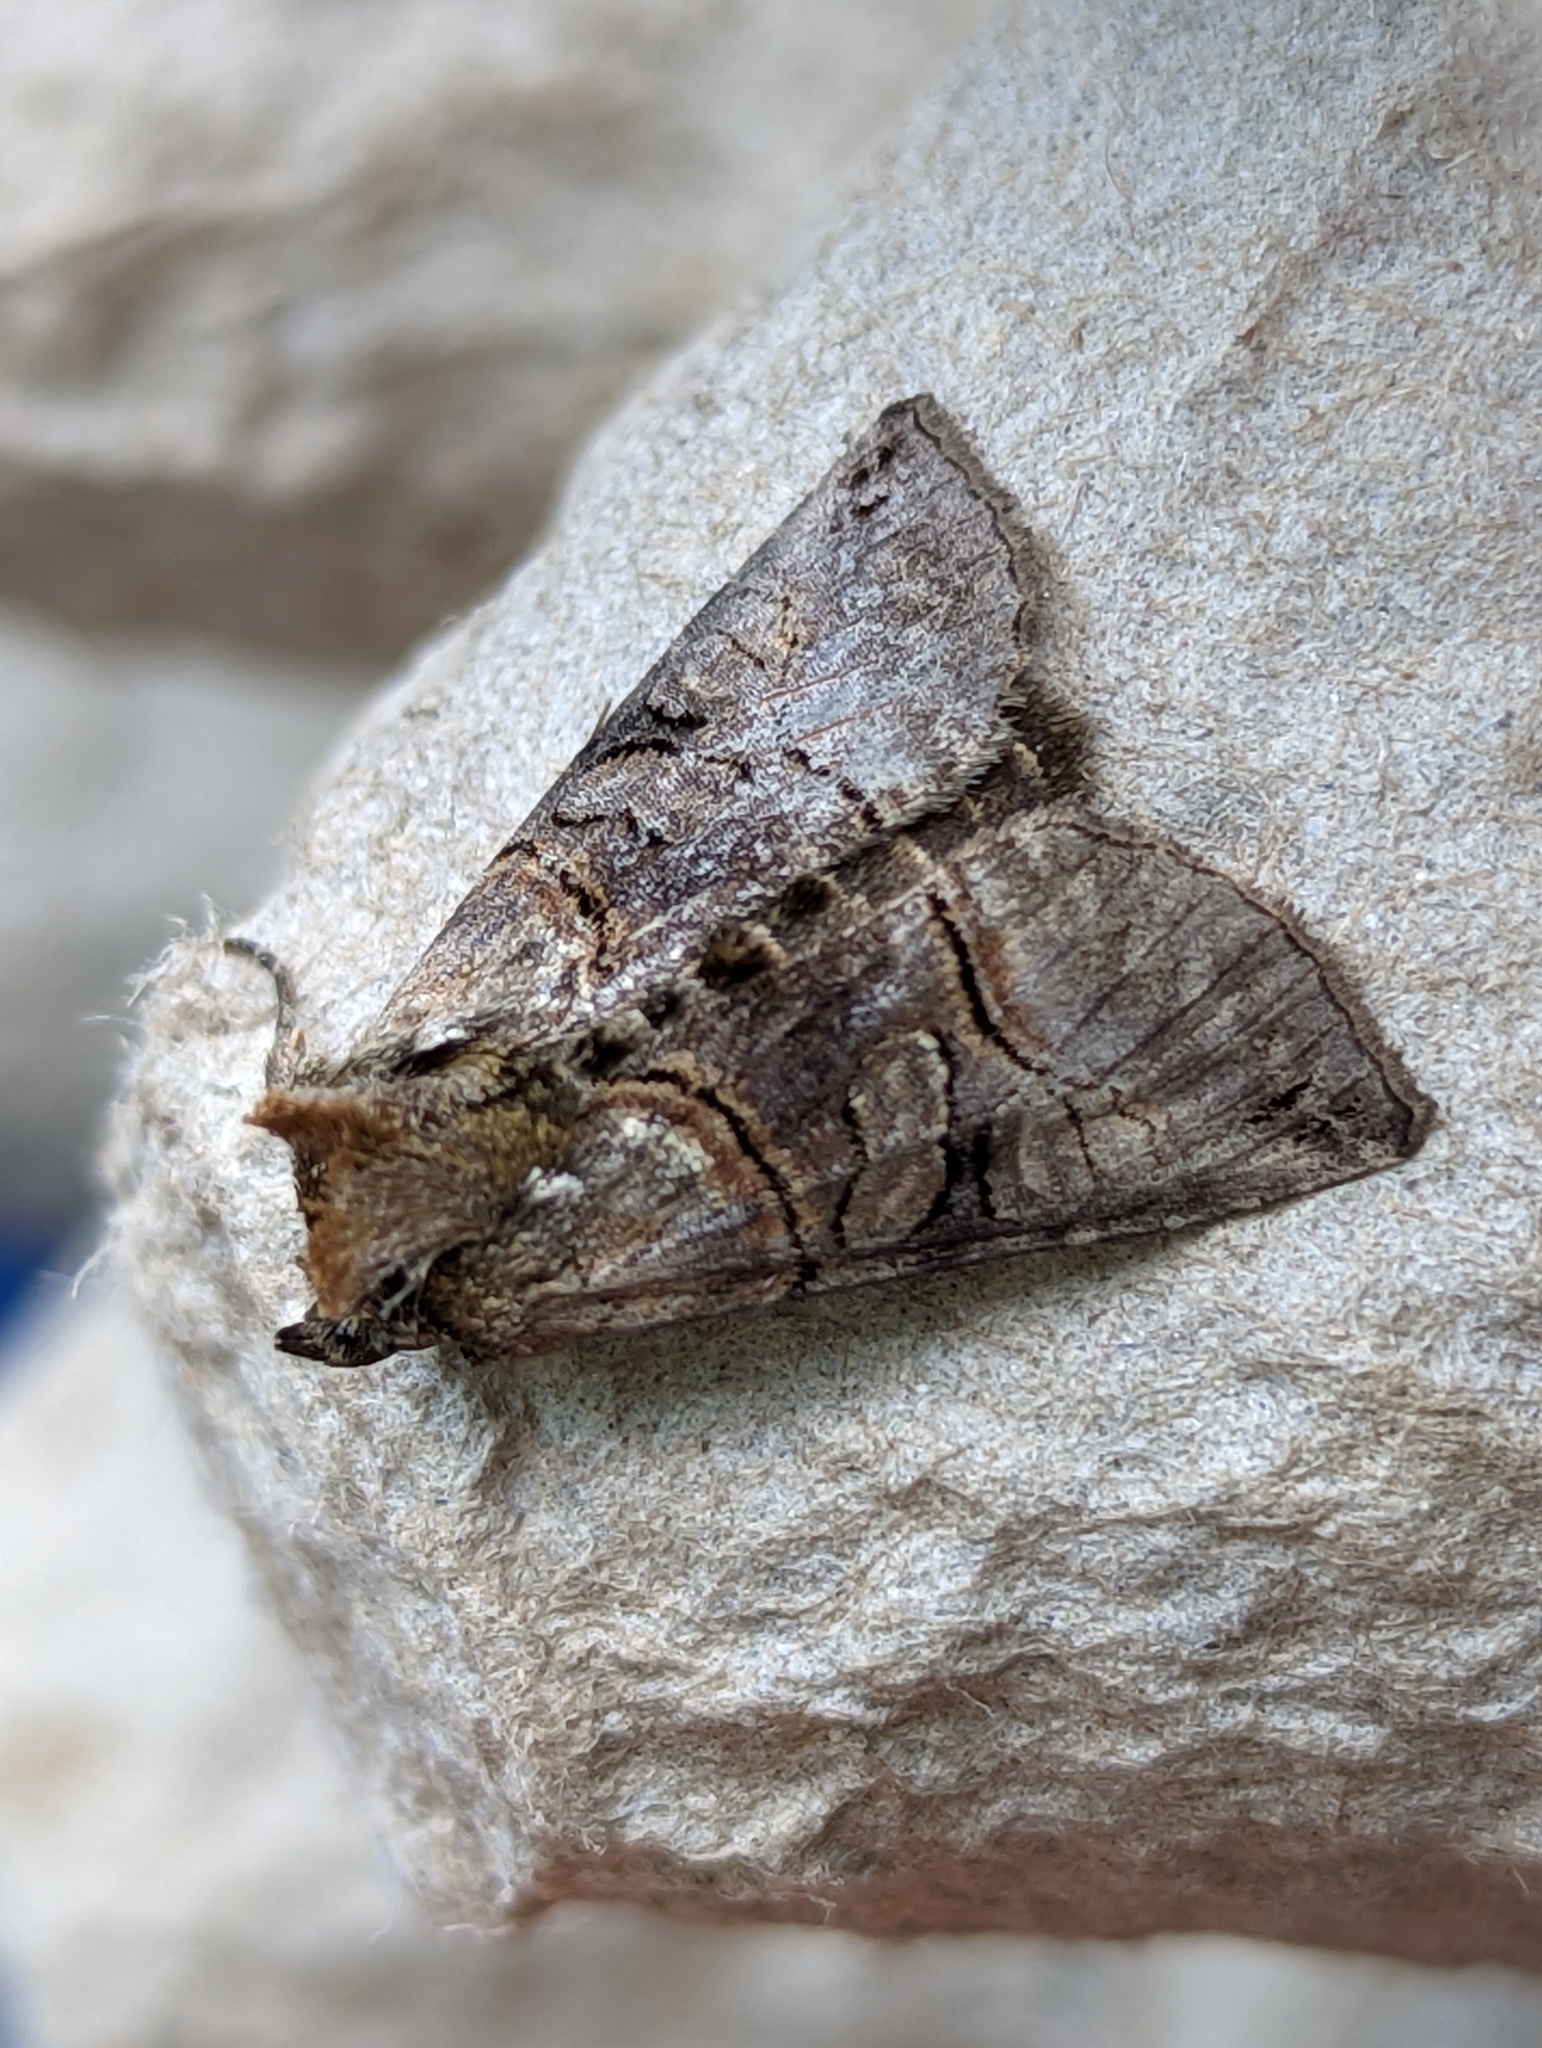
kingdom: Animalia
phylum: Arthropoda
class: Insecta
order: Lepidoptera
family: Noctuidae
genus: Abrostola
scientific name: Abrostola tripartita
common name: Spectacle
